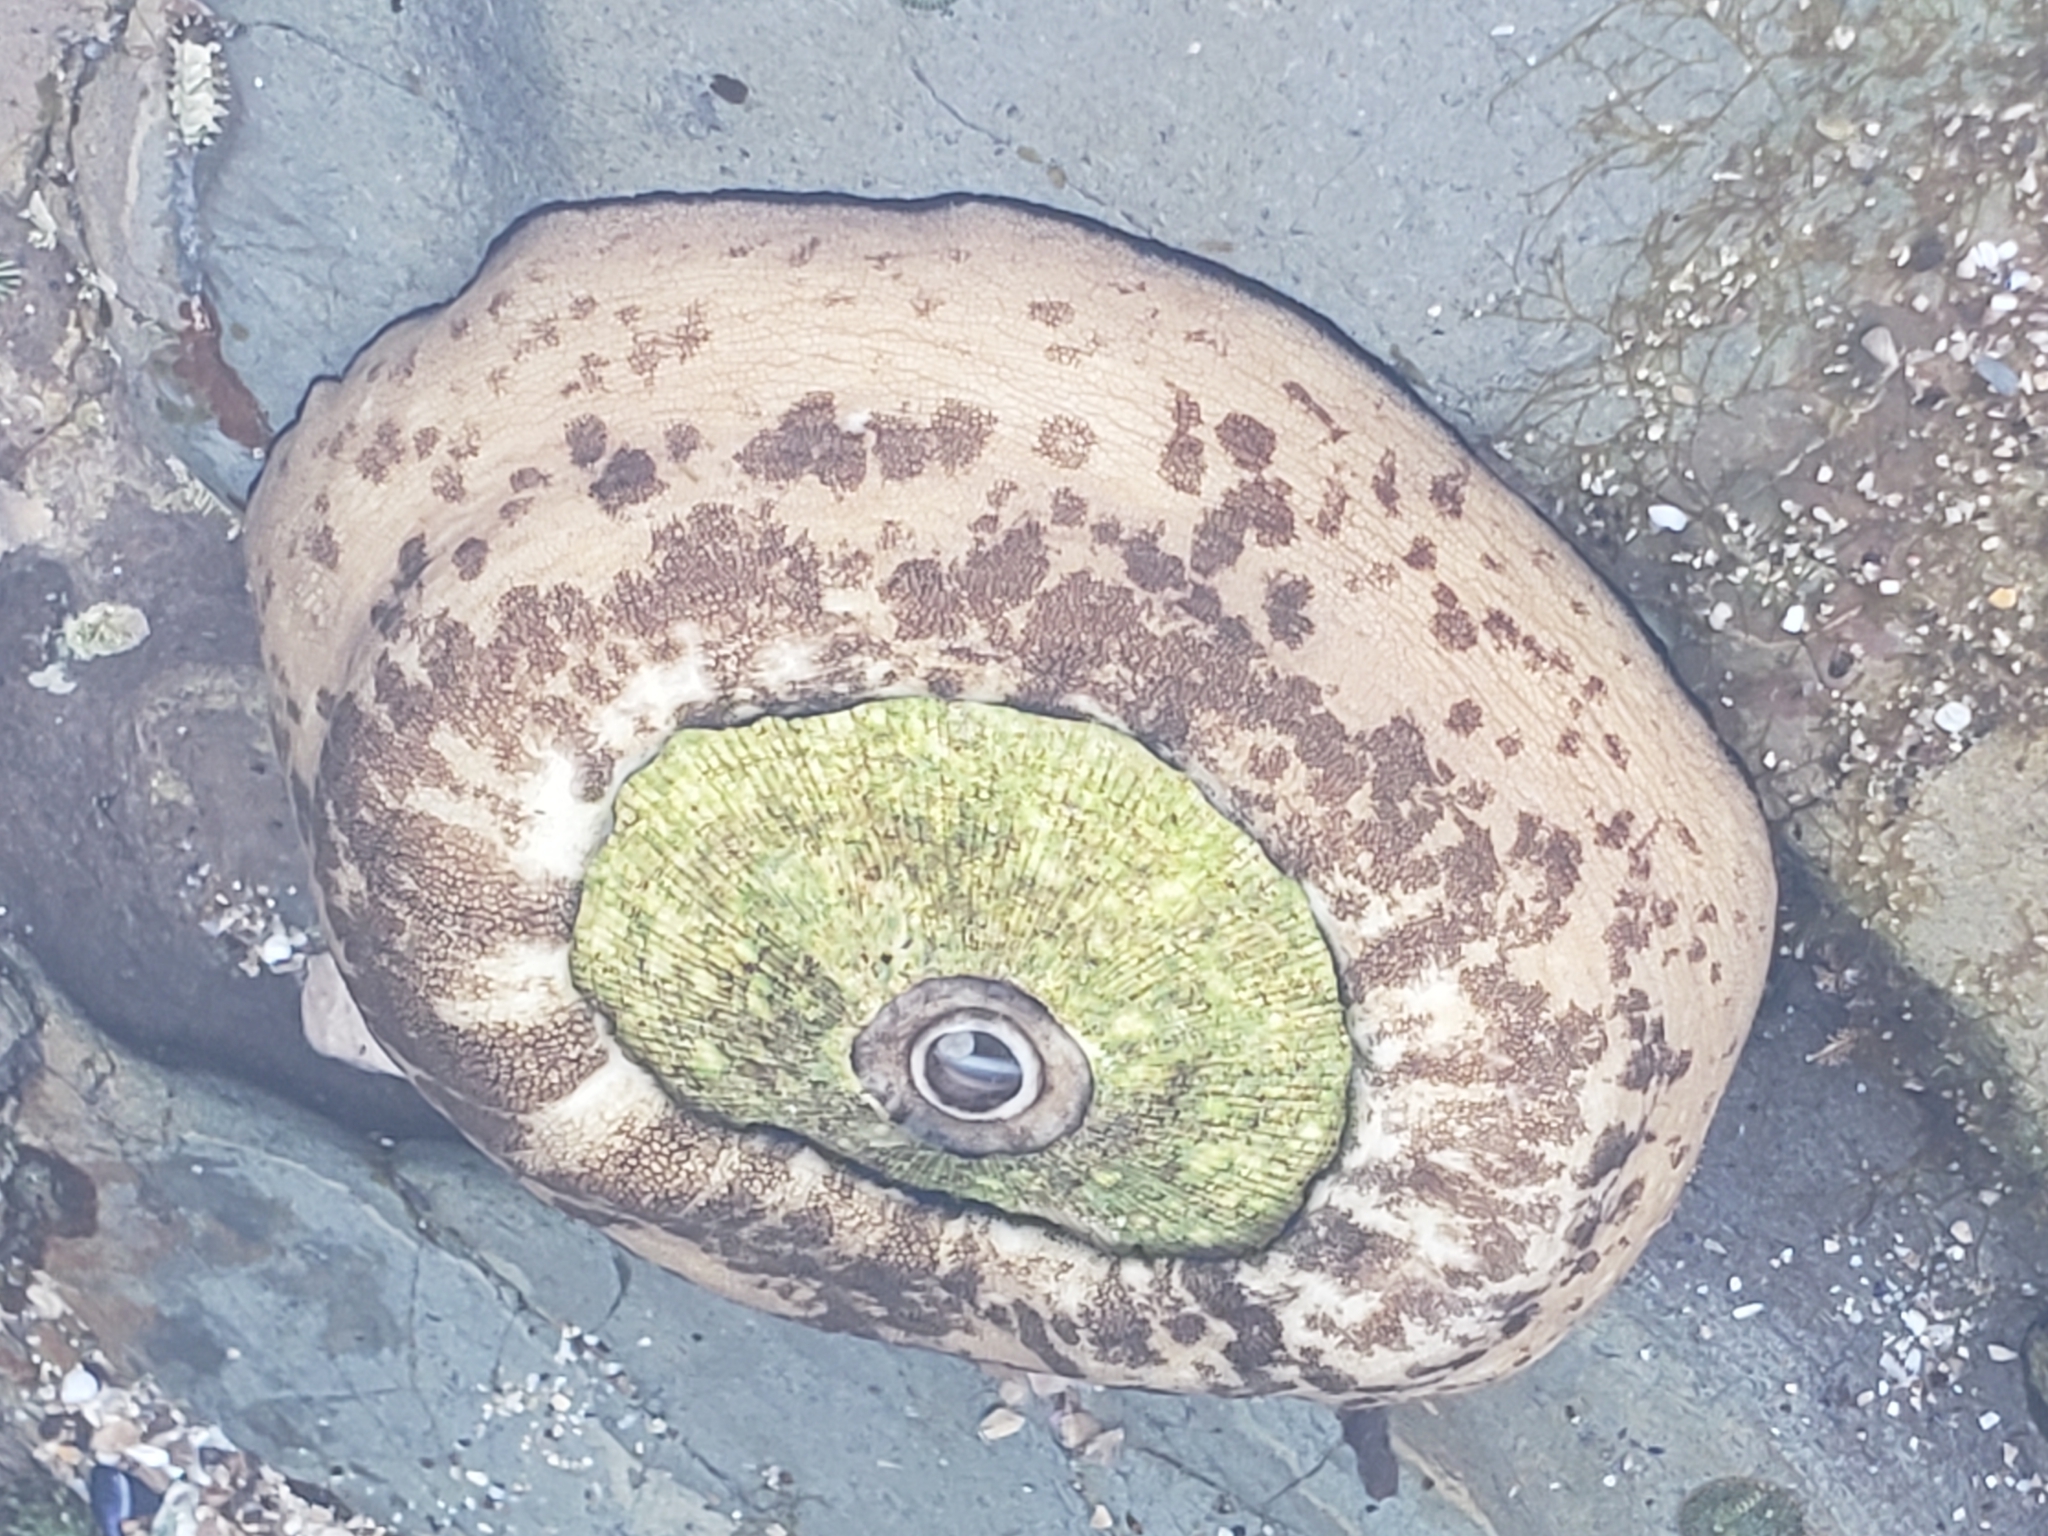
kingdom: Animalia
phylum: Mollusca
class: Gastropoda
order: Lepetellida
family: Fissurellidae
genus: Megathura
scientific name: Megathura crenulata
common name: Giant keyhole limpet
